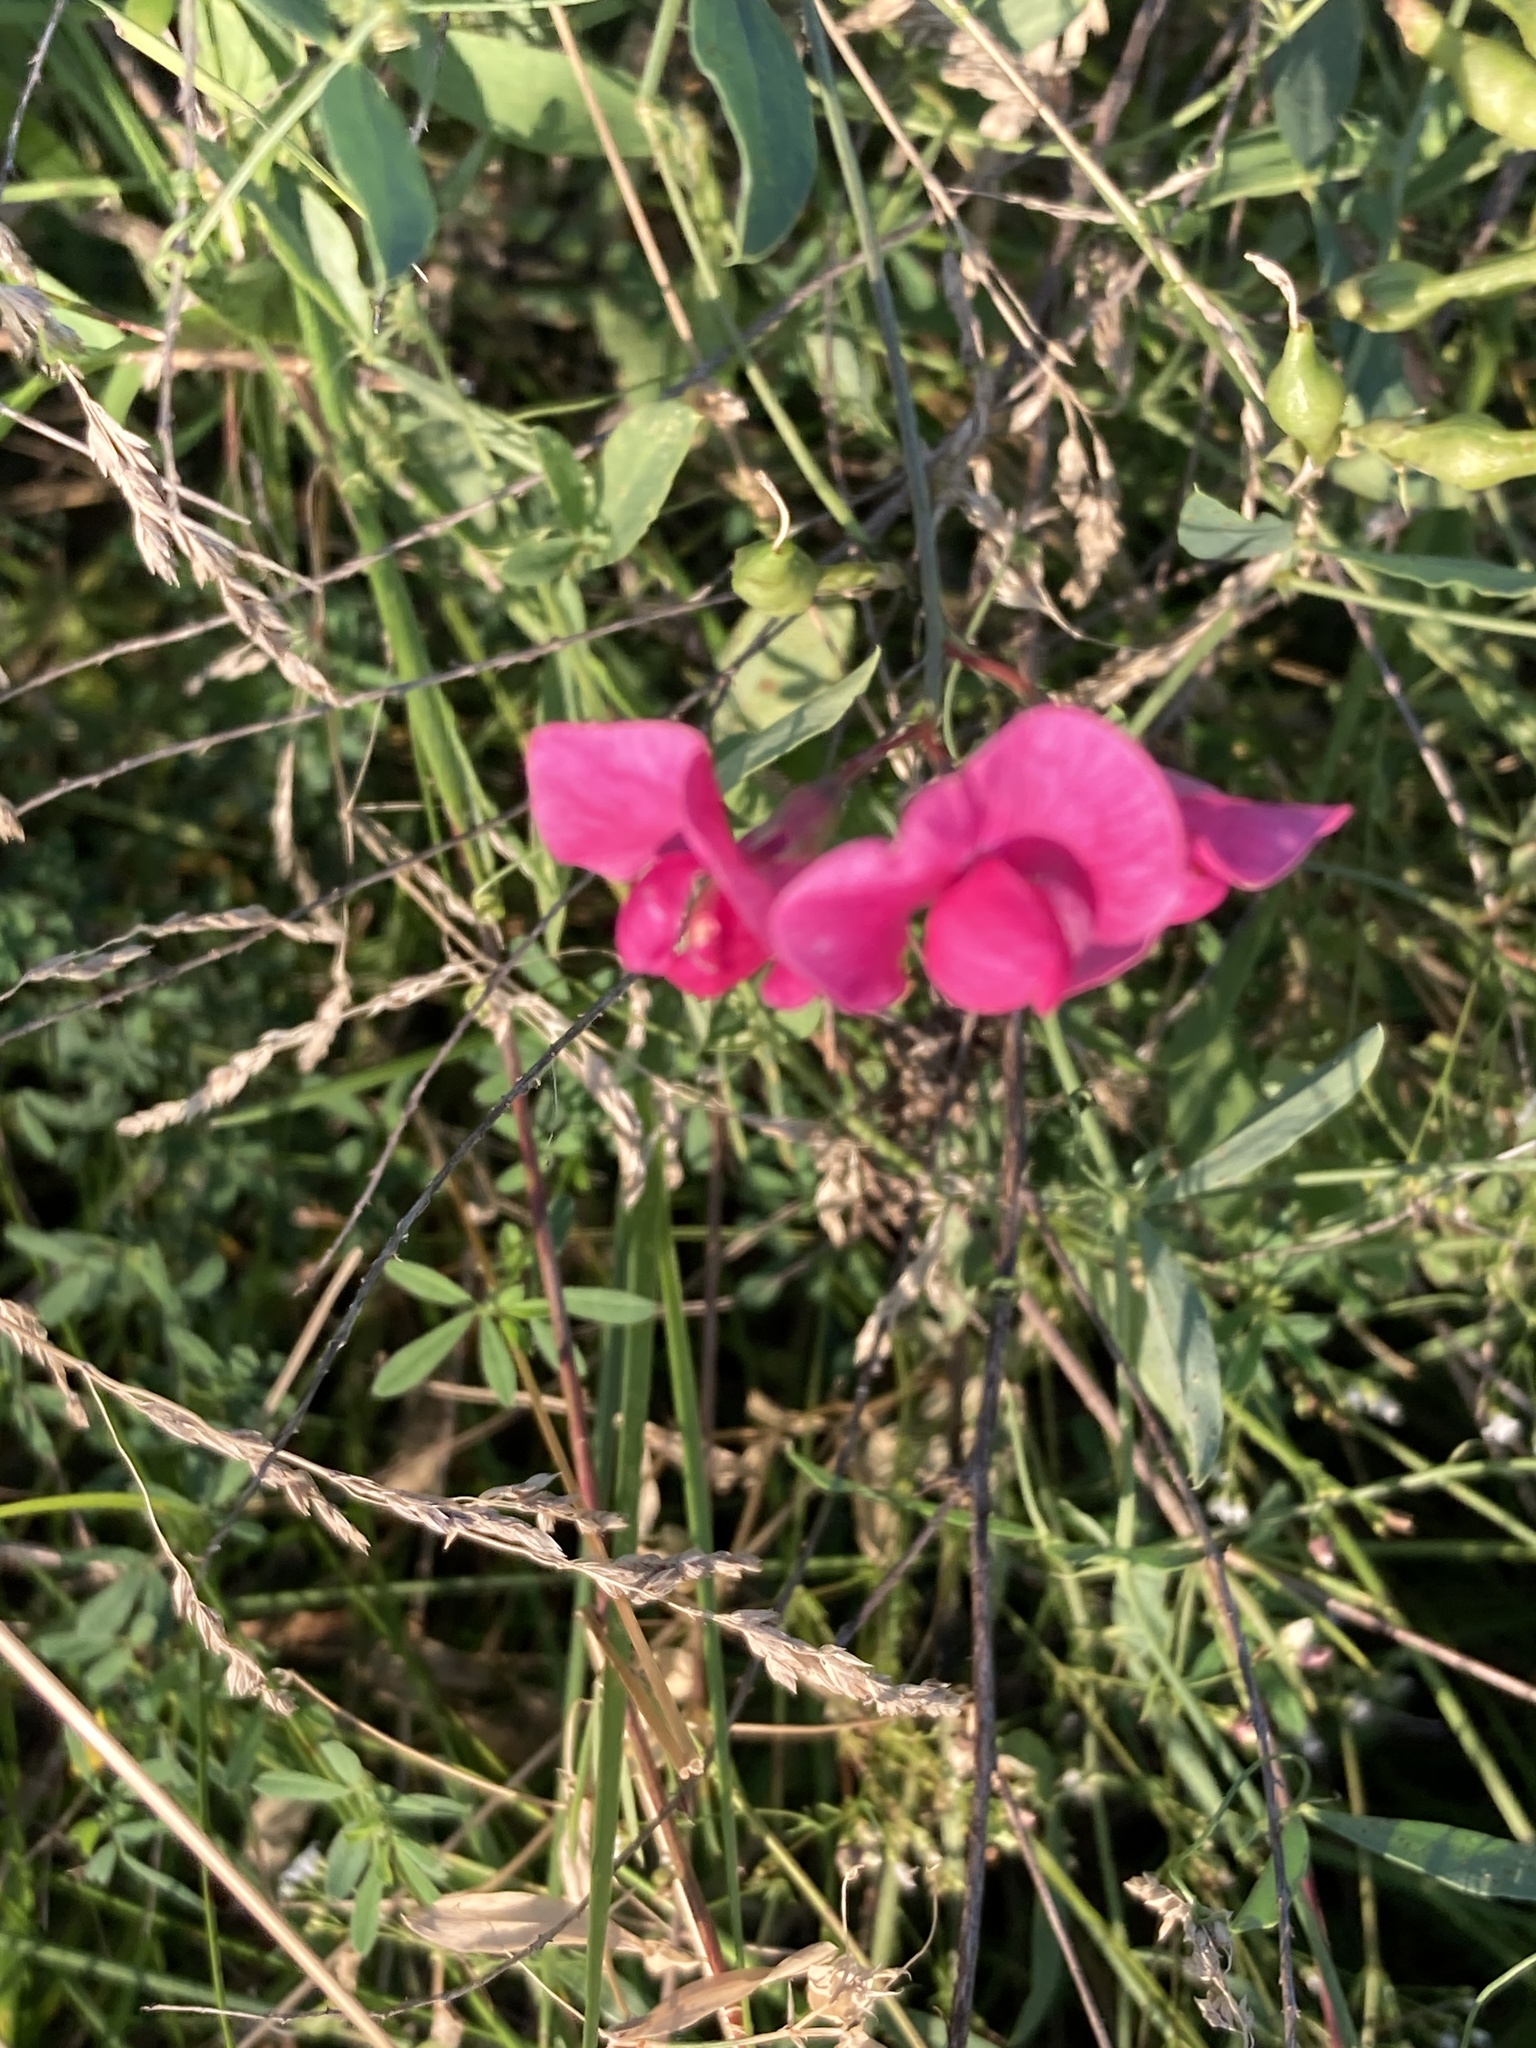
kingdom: Plantae
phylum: Tracheophyta
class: Magnoliopsida
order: Fabales
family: Fabaceae
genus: Lathyrus
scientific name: Lathyrus tuberosus
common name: Tuberous pea
